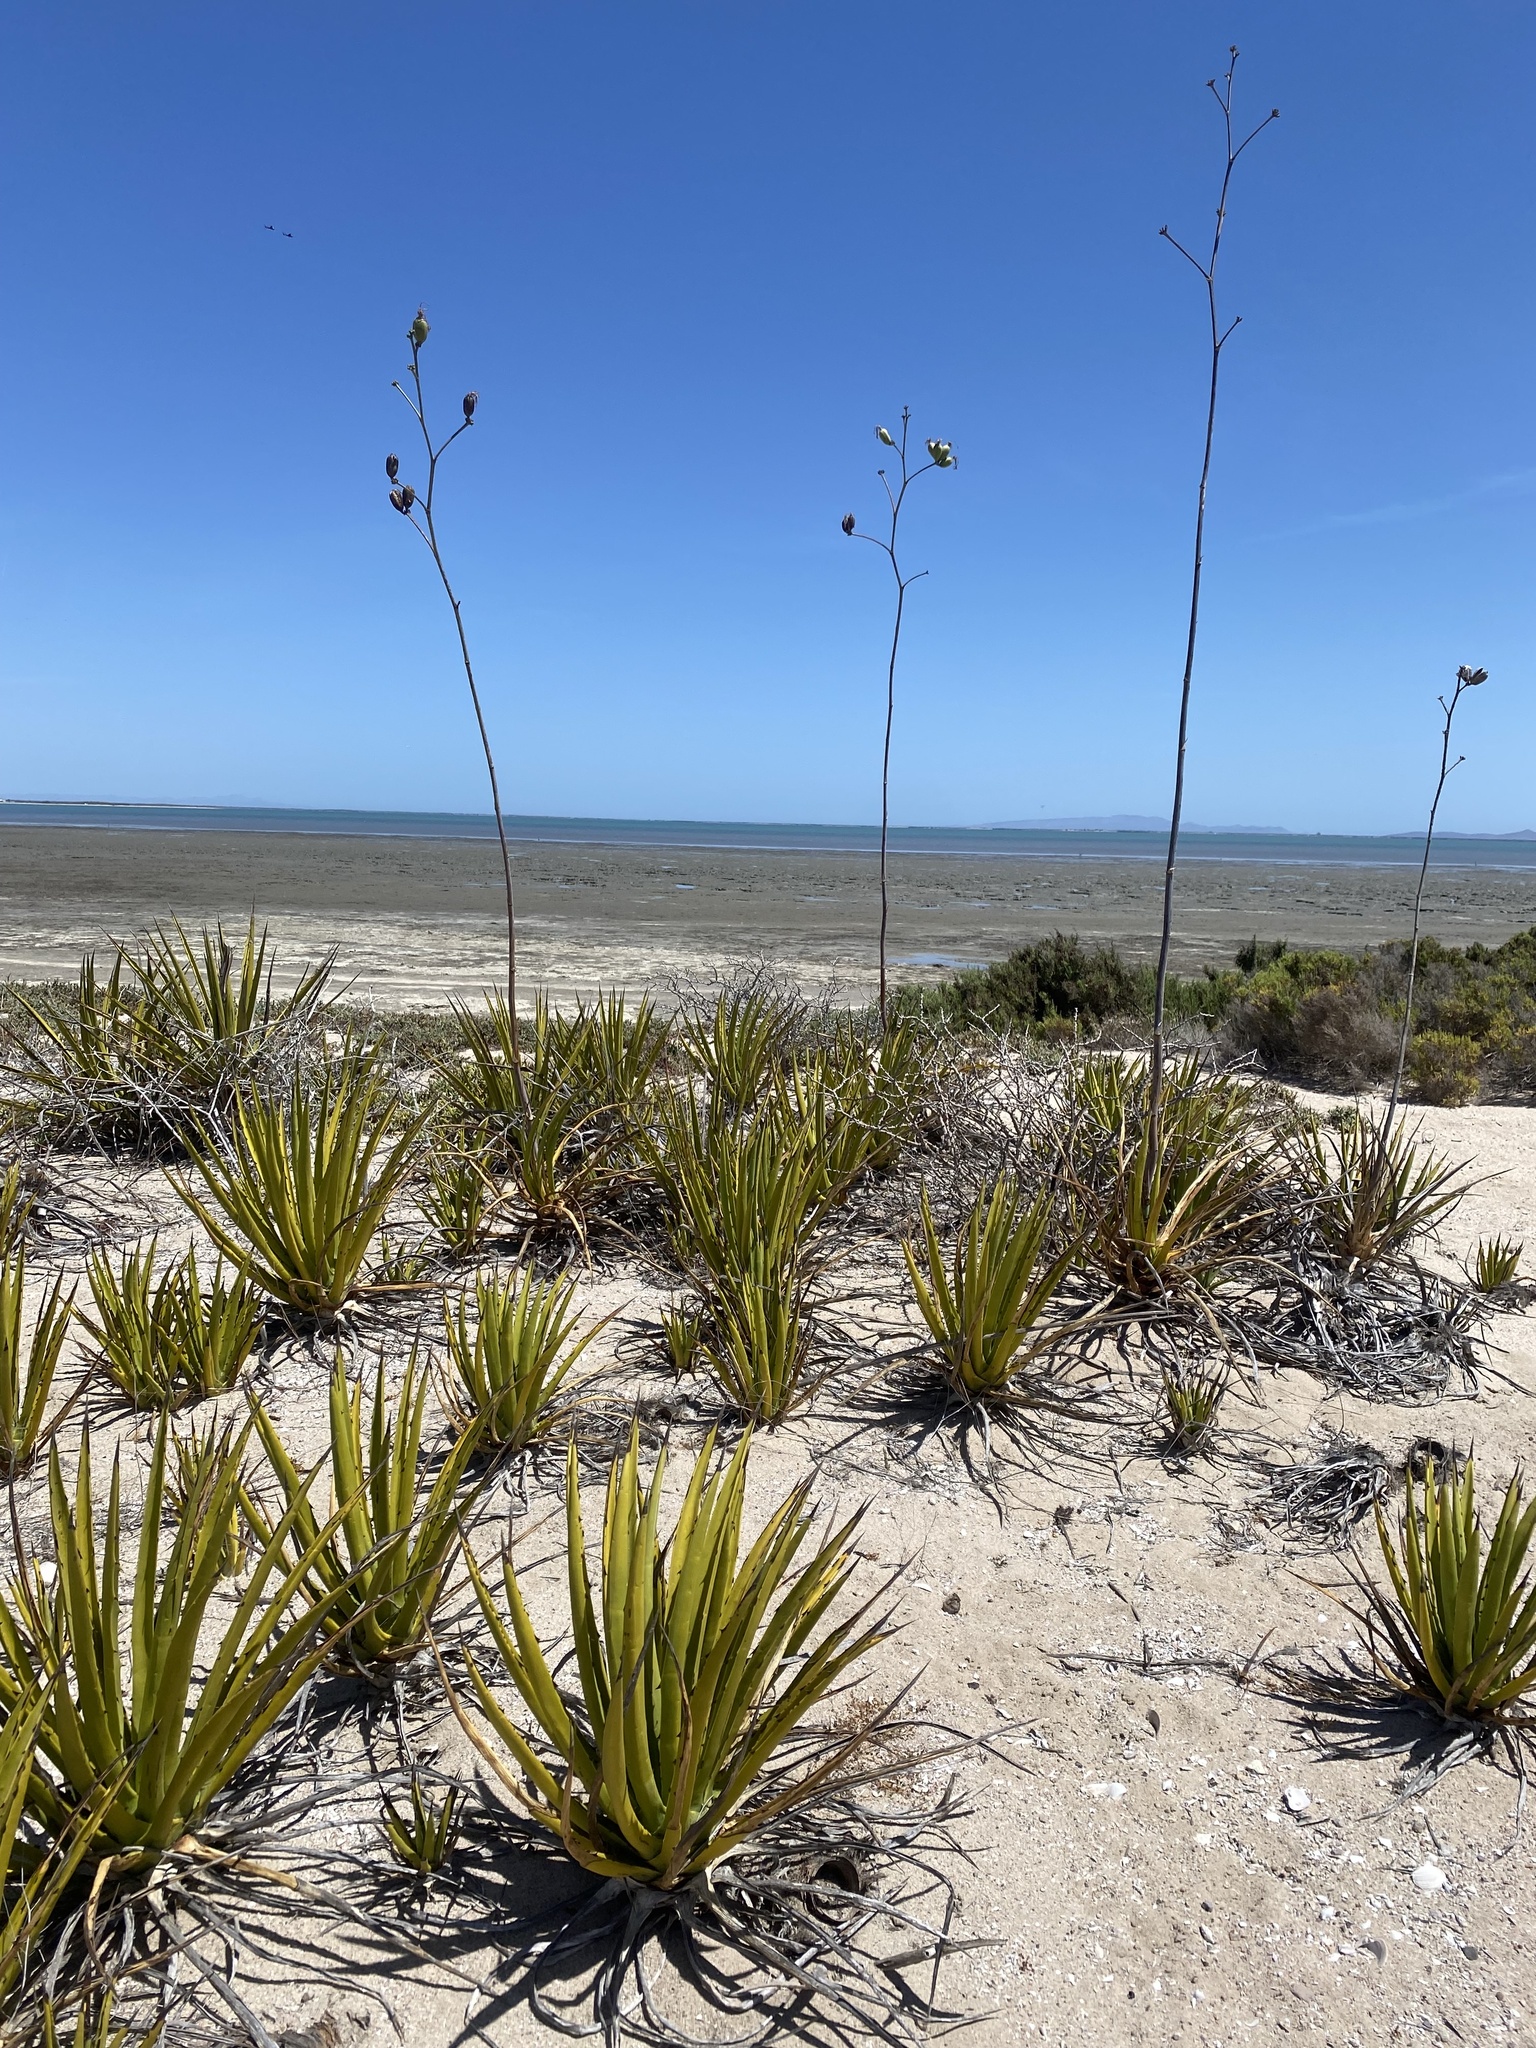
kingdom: Plantae
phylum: Tracheophyta
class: Liliopsida
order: Asparagales
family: Asparagaceae
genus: Agave
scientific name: Agave datylio
